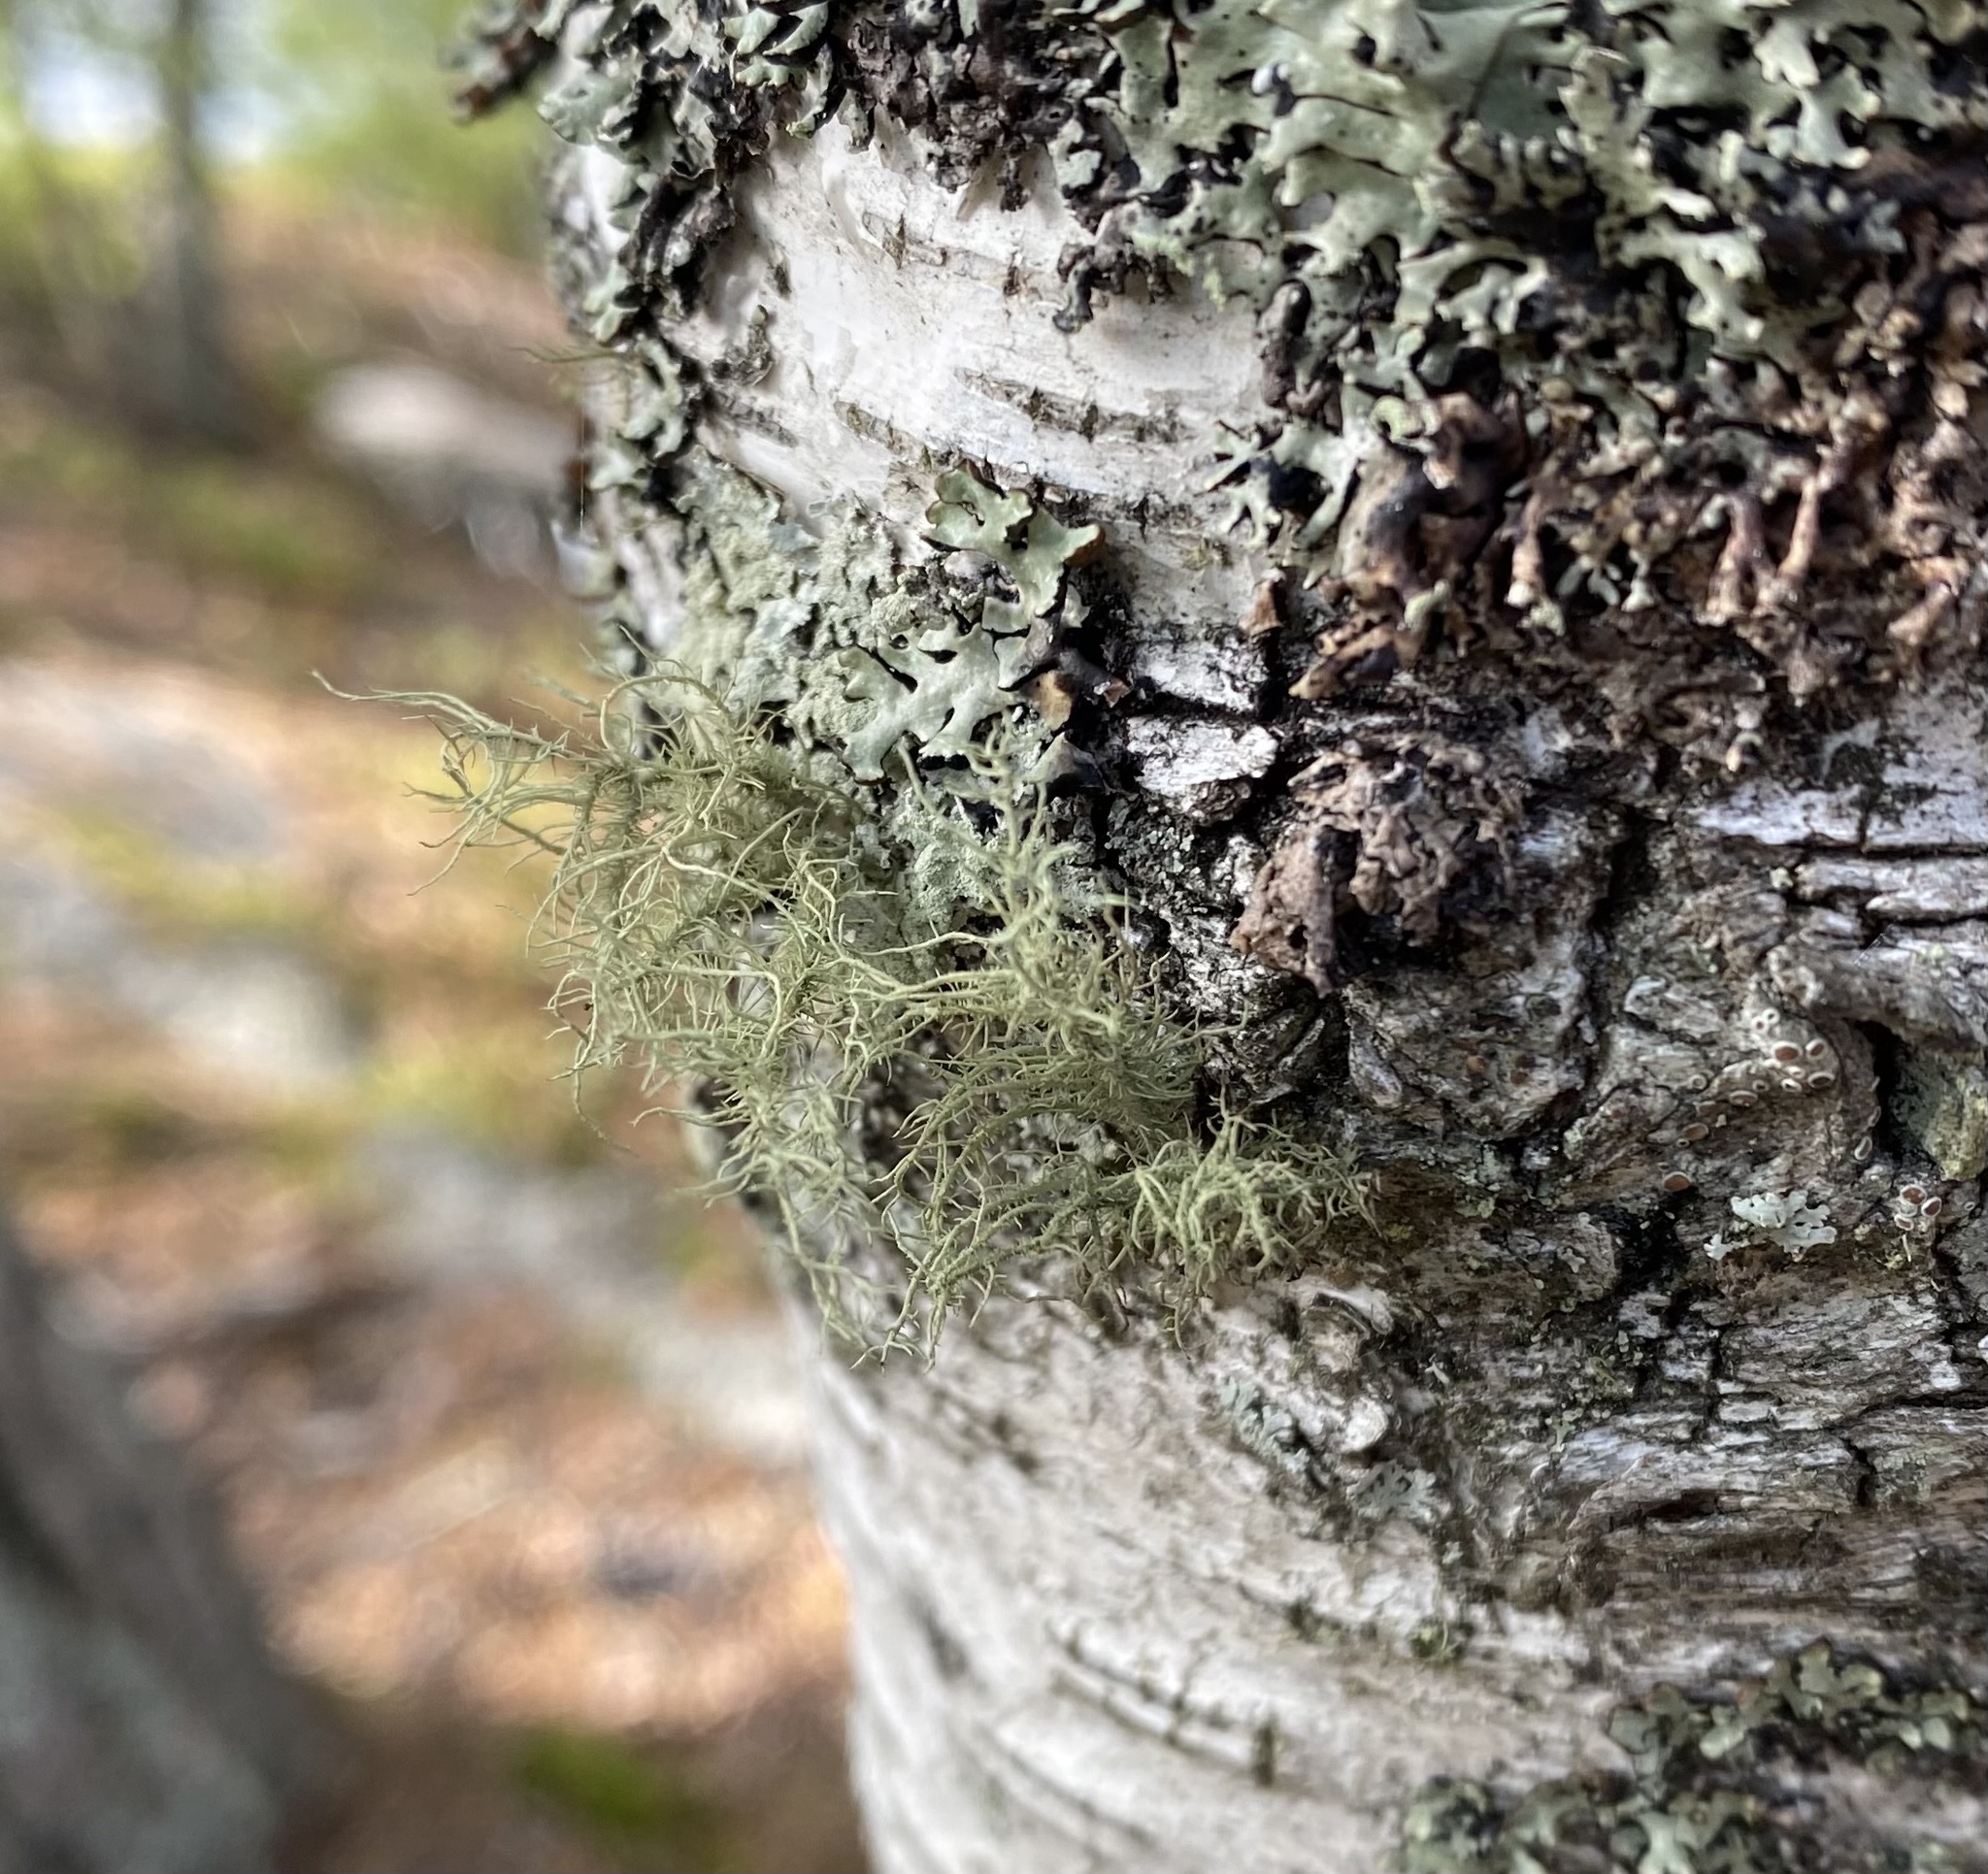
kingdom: Fungi
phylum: Ascomycota
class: Lecanoromycetes
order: Lecanorales
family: Parmeliaceae
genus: Usnea
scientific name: Usnea hirta
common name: Bristly beard lichen
